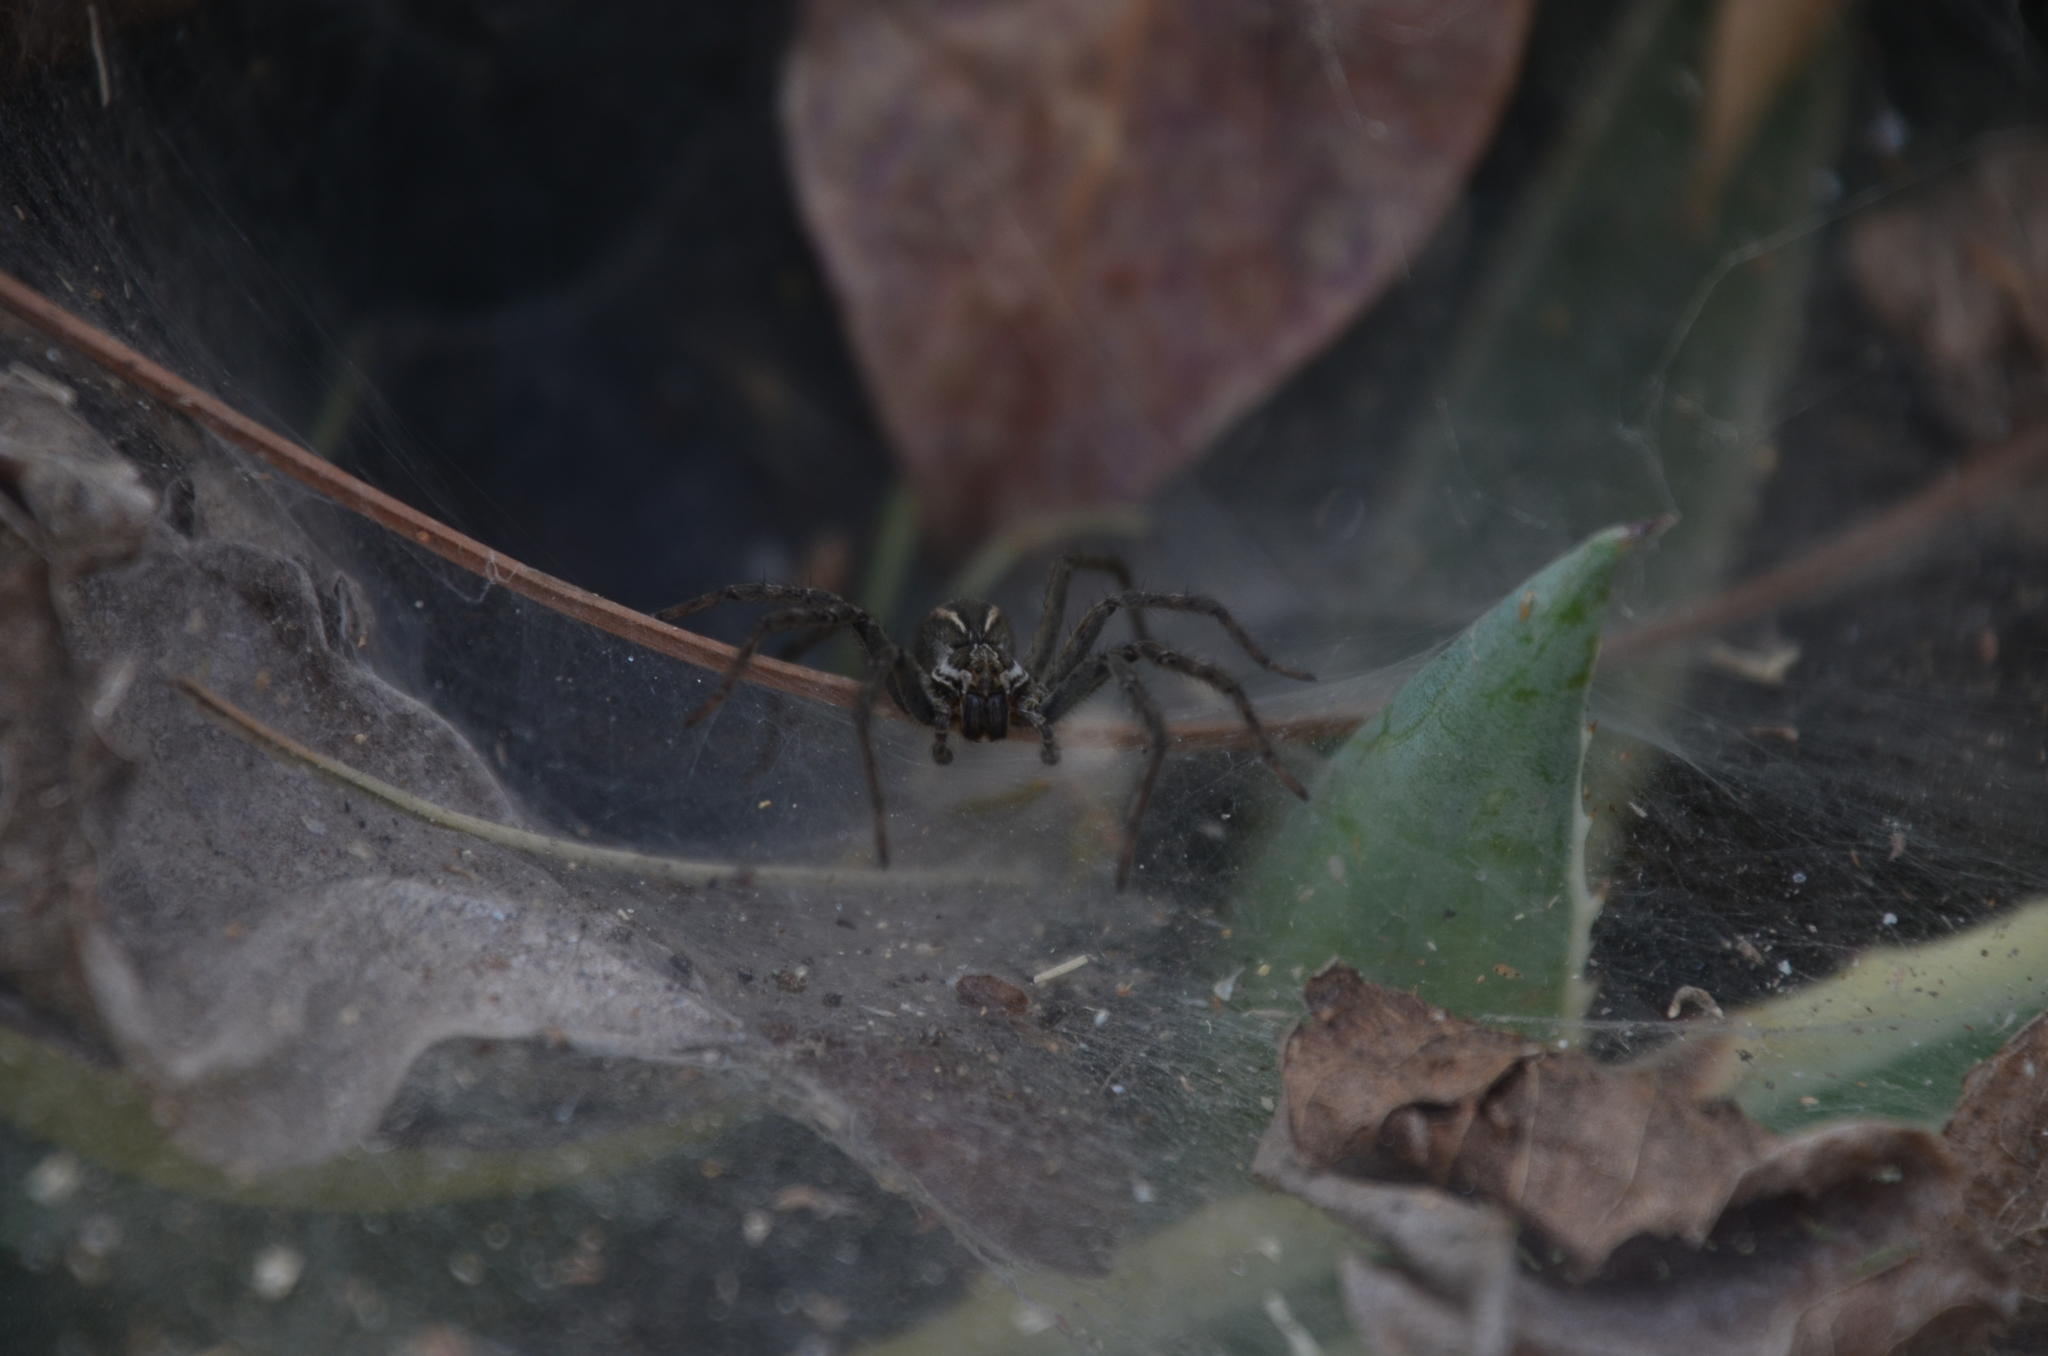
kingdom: Animalia
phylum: Arthropoda
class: Arachnida
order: Araneae
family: Lycosidae
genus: Aglaoctenus
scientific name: Aglaoctenus lagotis
